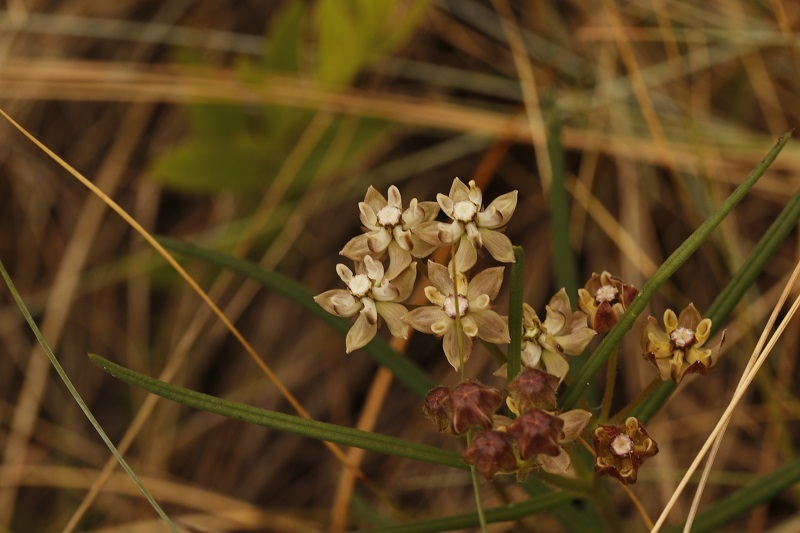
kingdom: Plantae
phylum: Tracheophyta
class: Magnoliopsida
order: Gentianales
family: Apocynaceae
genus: Asclepias
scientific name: Asclepias cucullata
